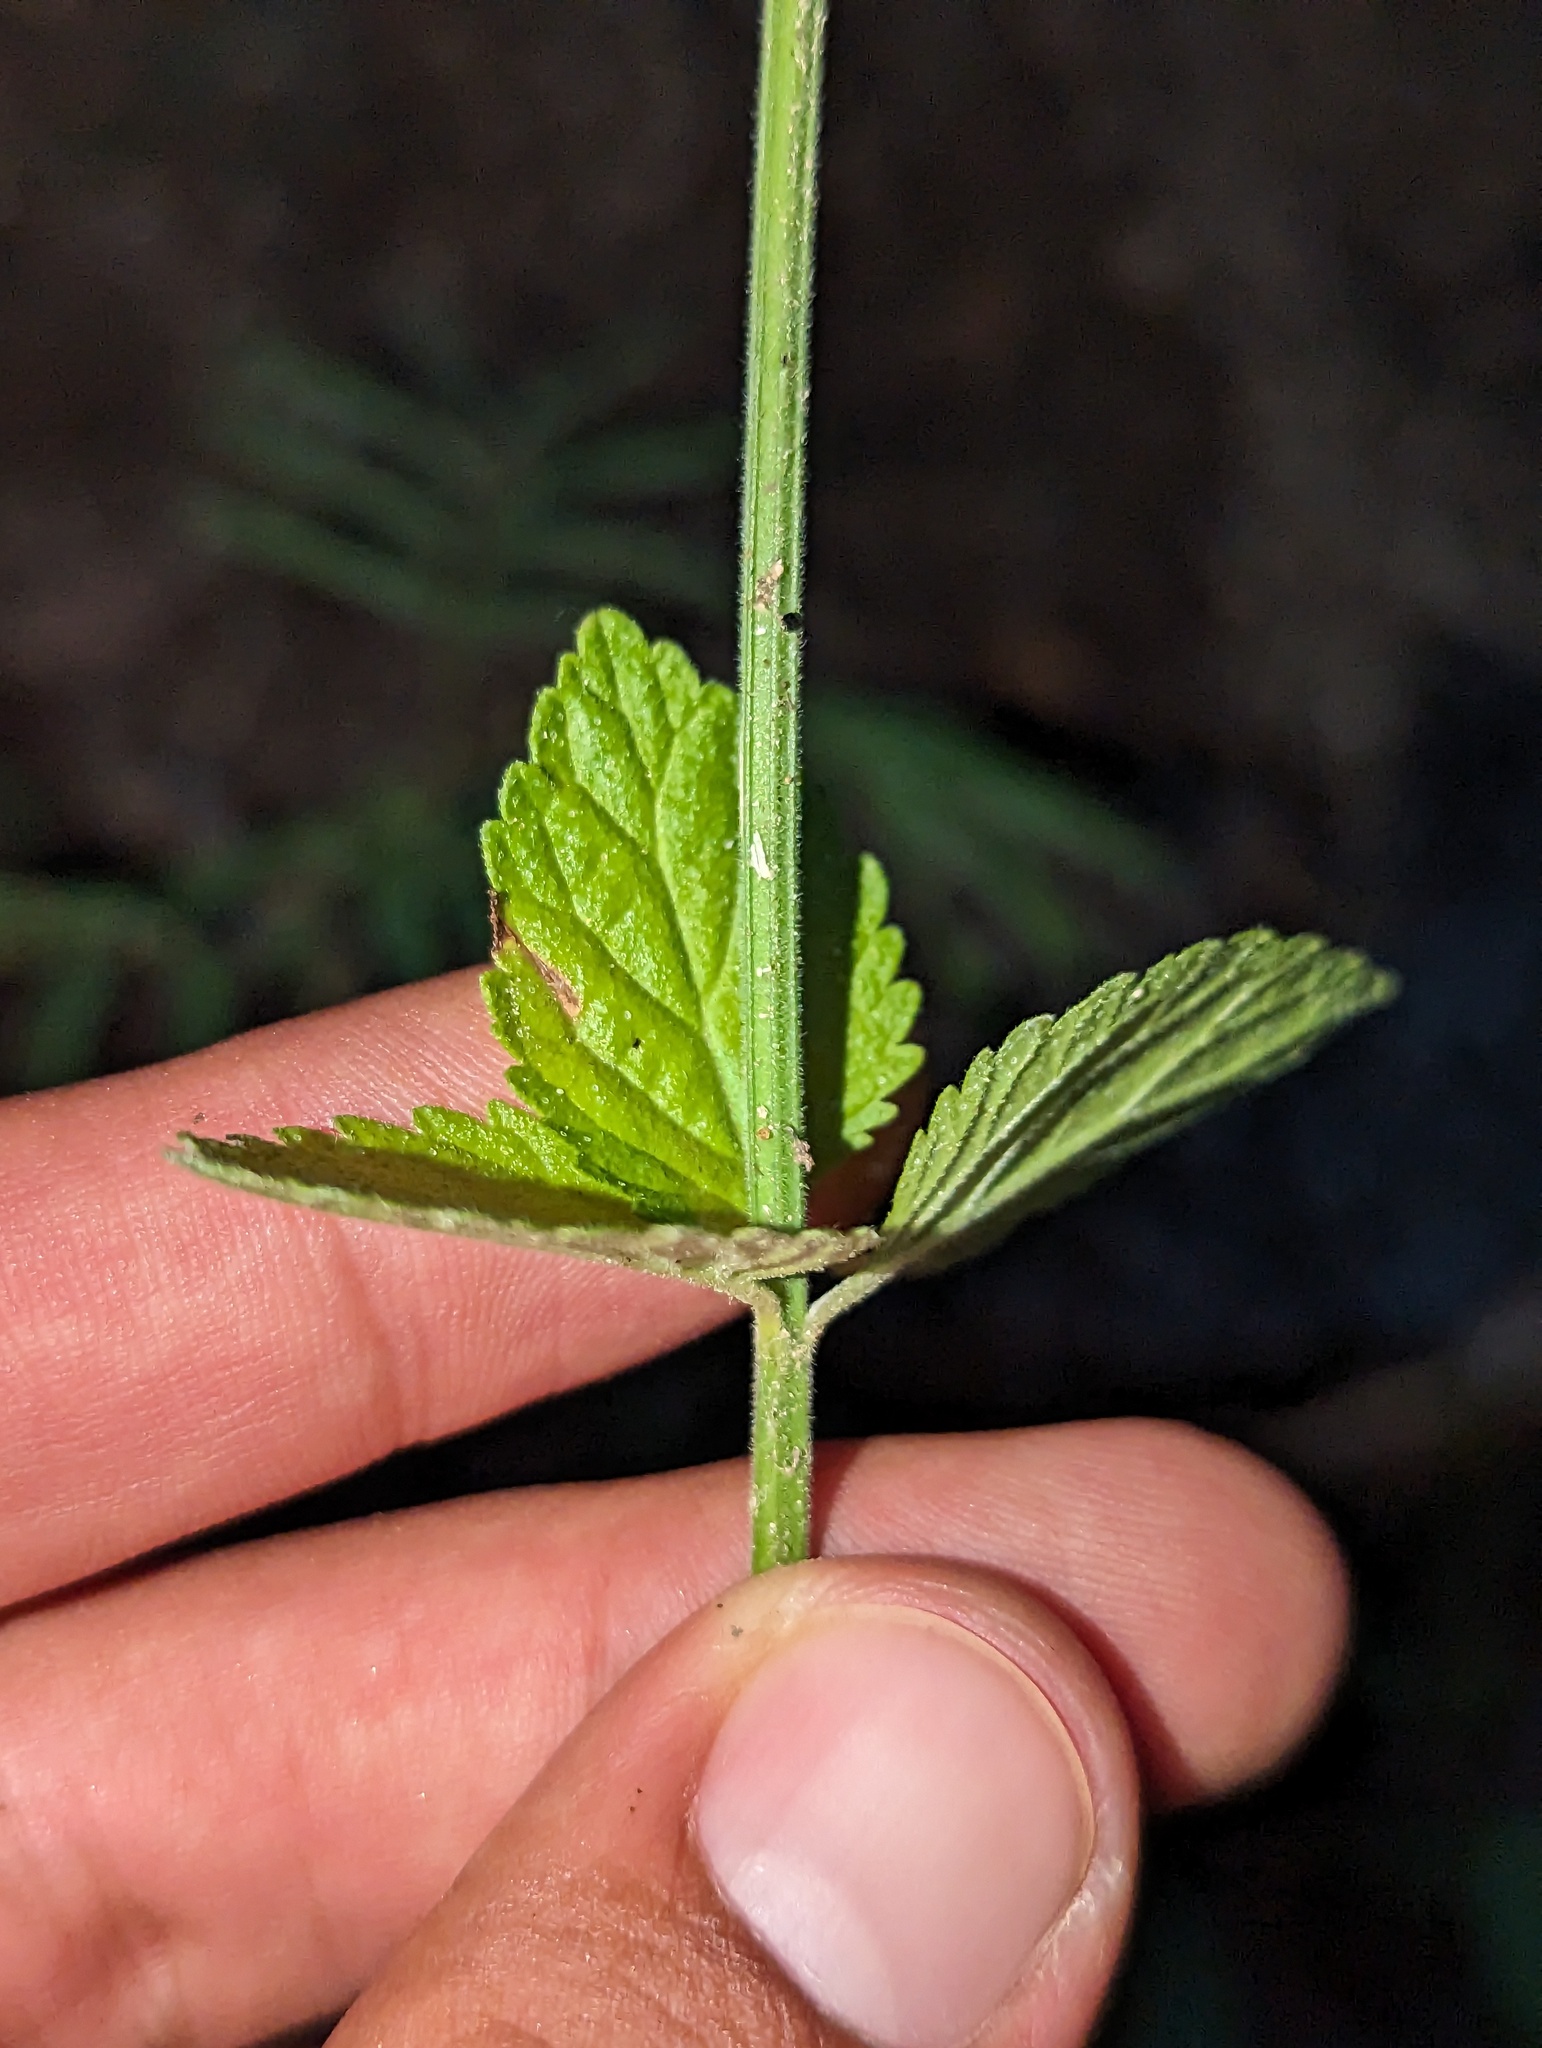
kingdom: Plantae
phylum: Tracheophyta
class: Magnoliopsida
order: Lamiales
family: Plantaginaceae
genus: Russelia
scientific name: Russelia retrorsa
